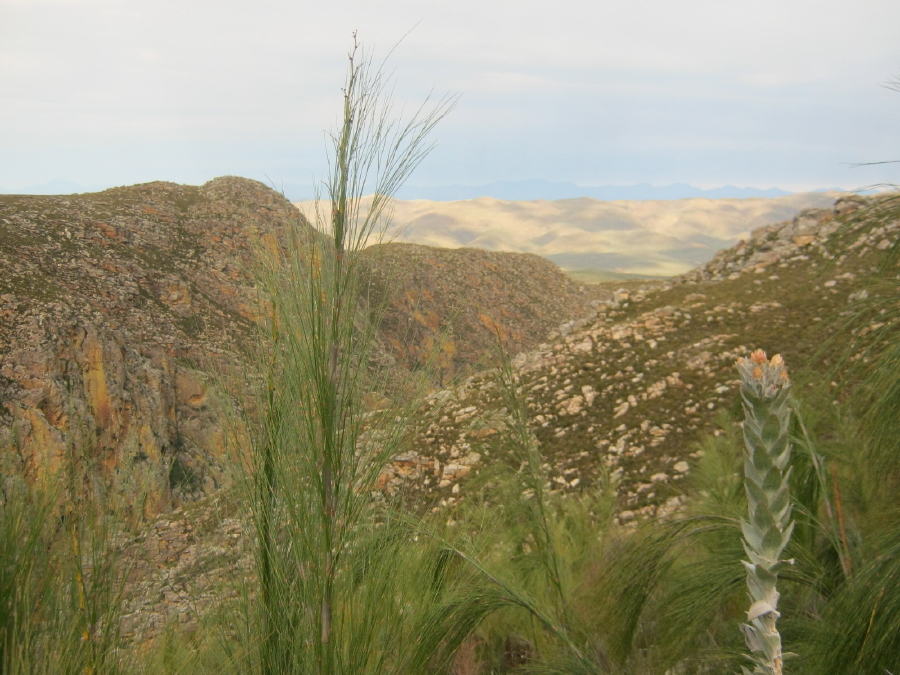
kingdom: Plantae
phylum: Tracheophyta
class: Magnoliopsida
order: Asterales
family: Asteraceae
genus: Syncarpha
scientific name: Syncarpha milleflora
